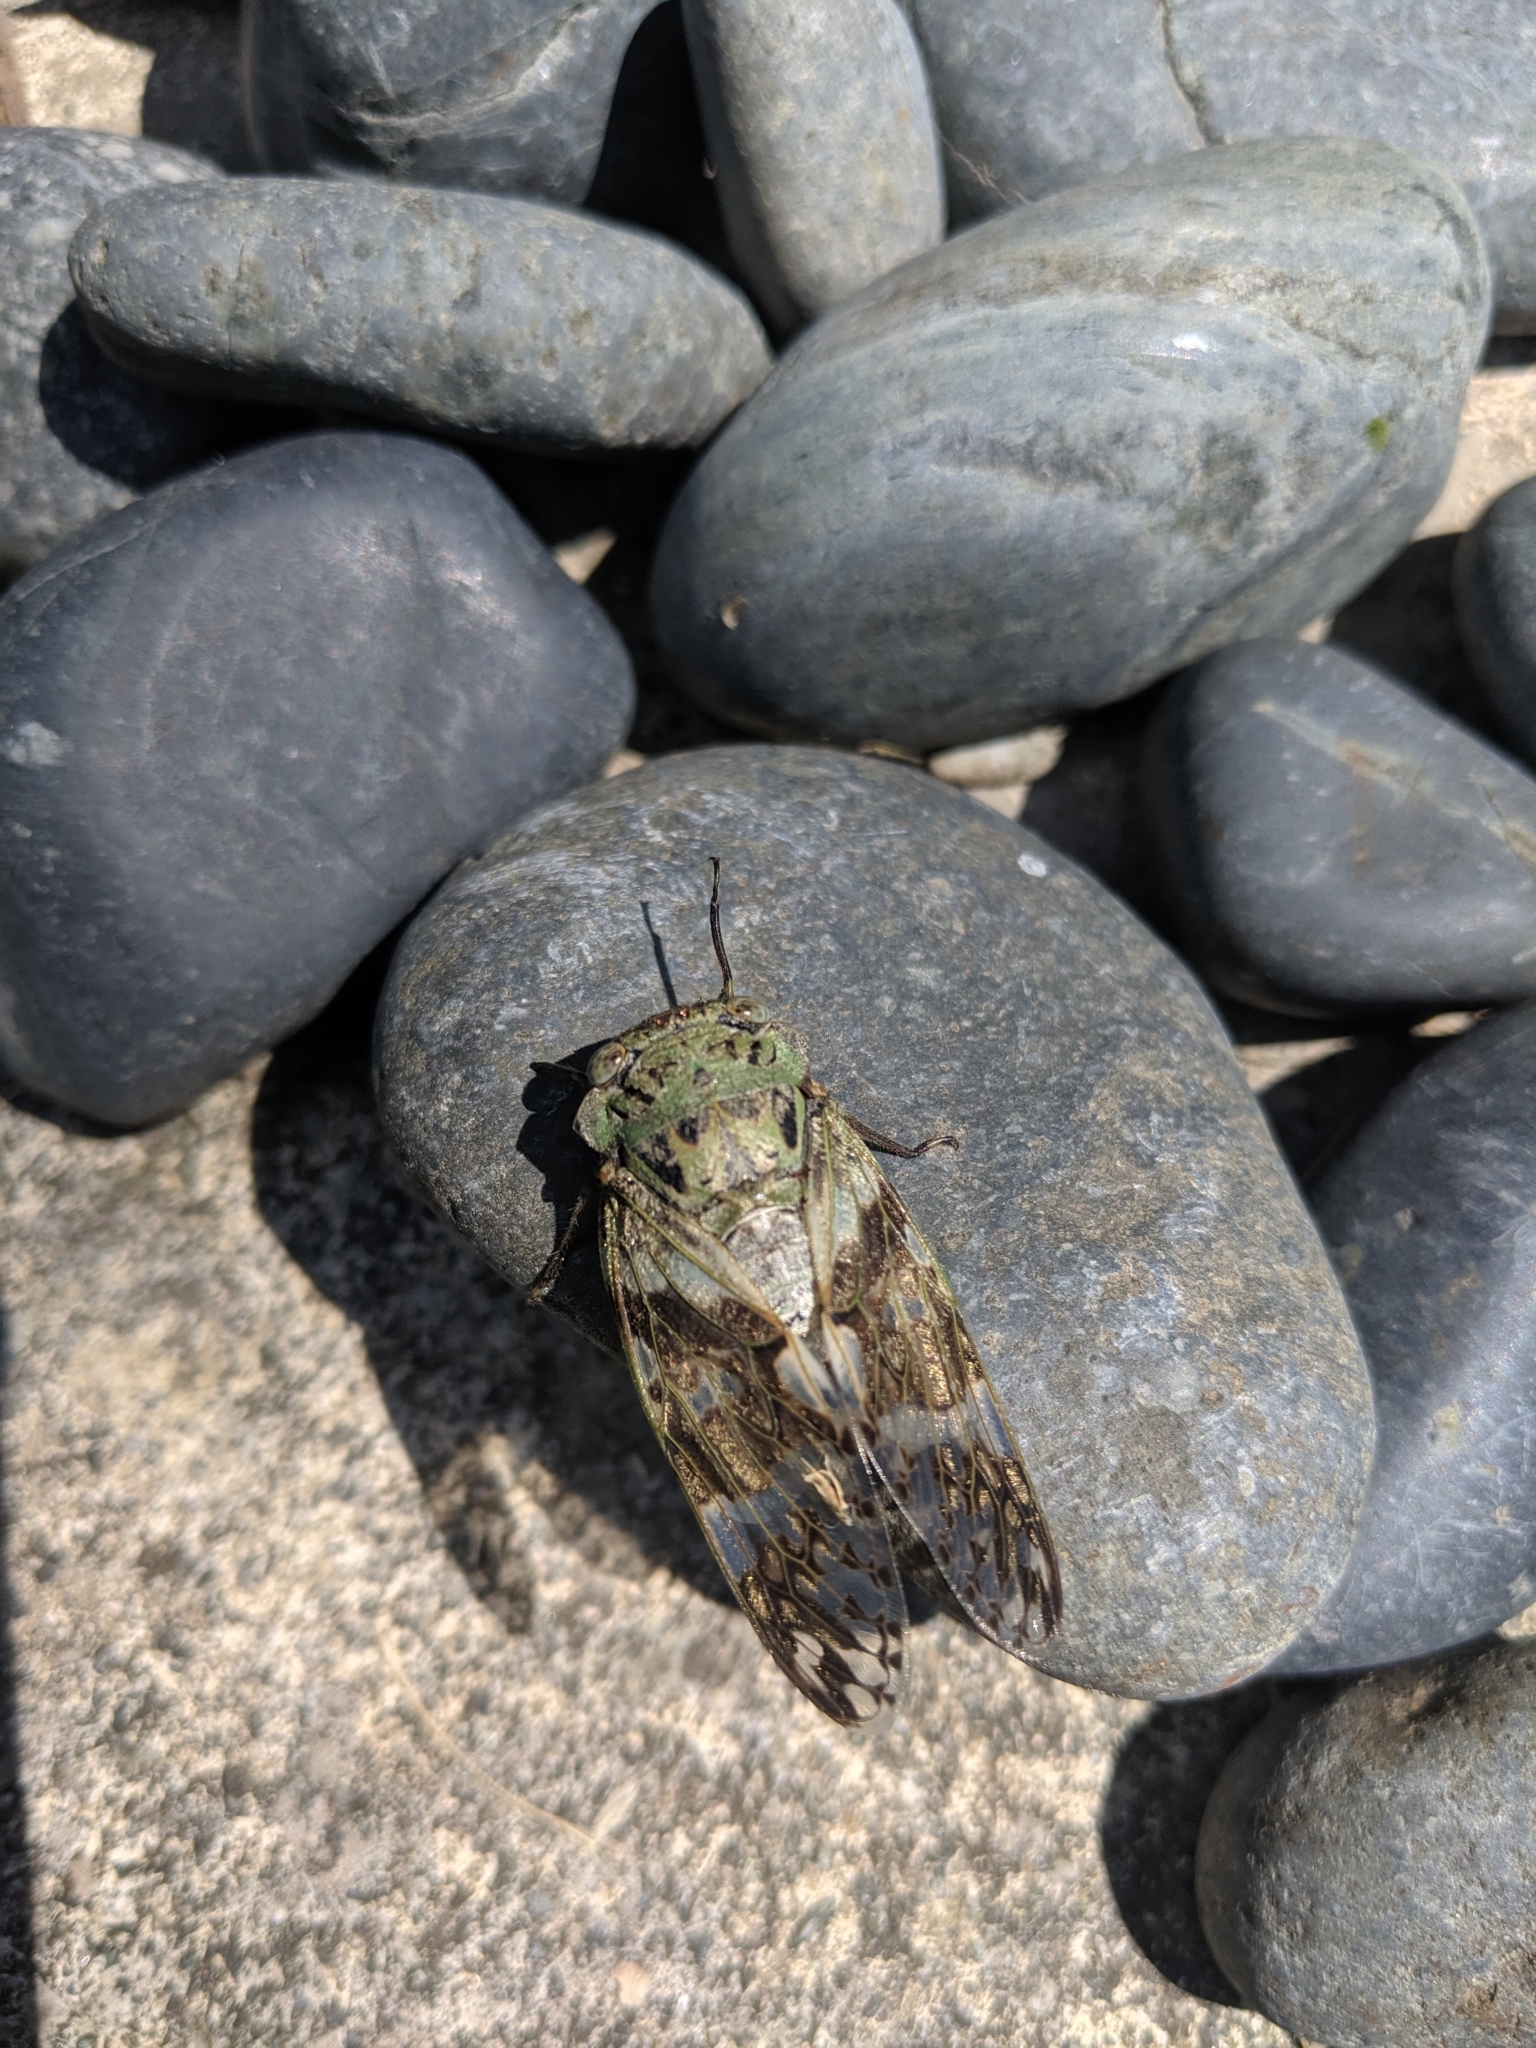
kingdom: Animalia
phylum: Arthropoda
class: Insecta
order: Hemiptera
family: Cicadidae
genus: Platypleura
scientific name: Platypleura takasagona
